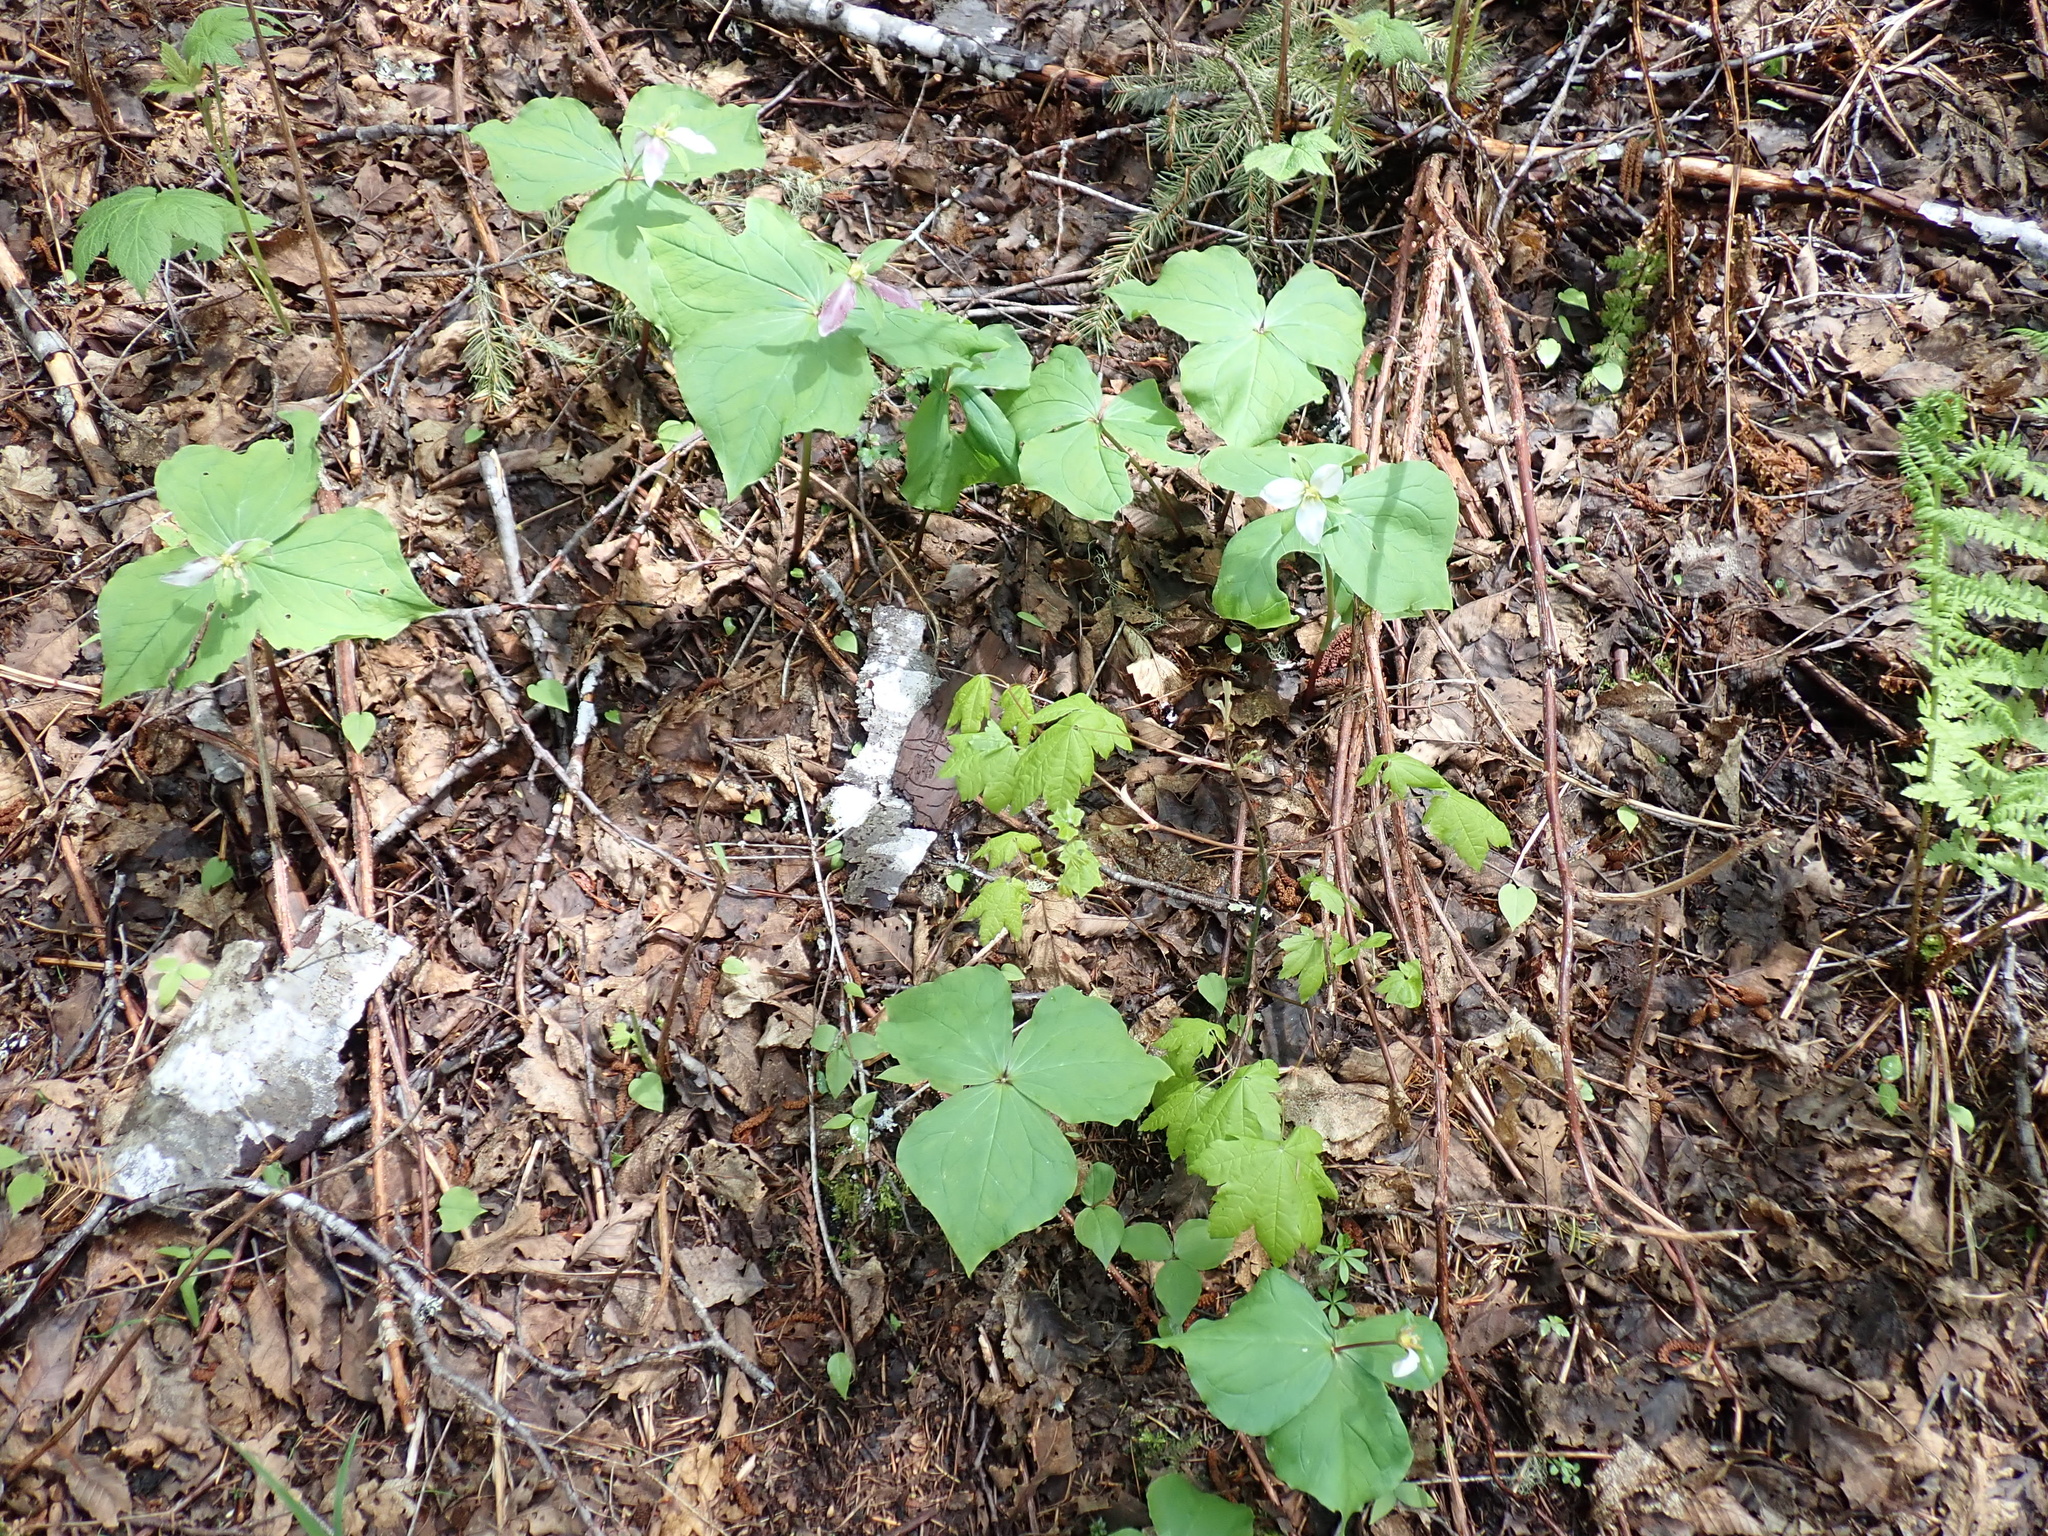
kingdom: Plantae
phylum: Tracheophyta
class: Liliopsida
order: Liliales
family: Melanthiaceae
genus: Trillium
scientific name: Trillium ovatum
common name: Pacific trillium
